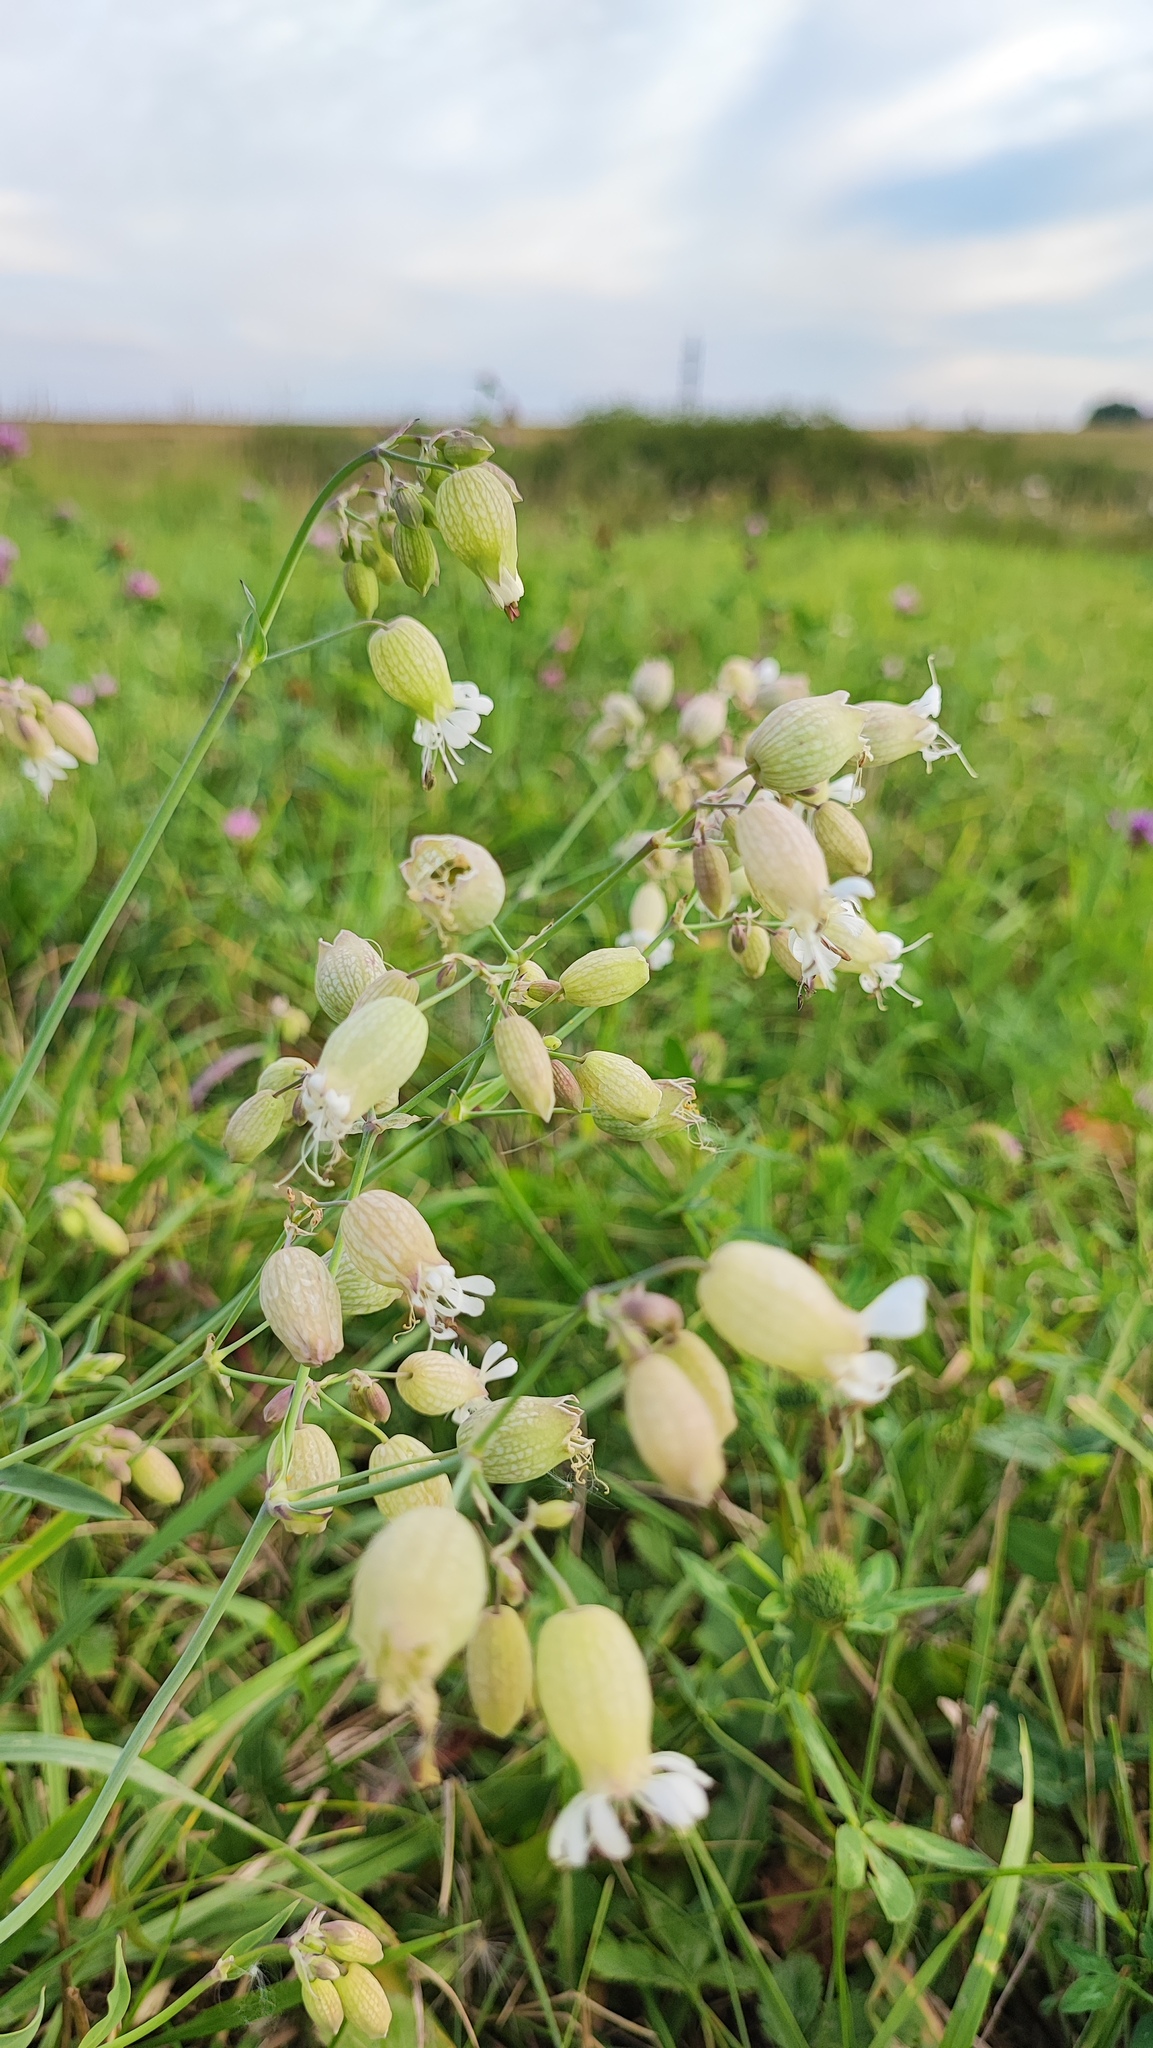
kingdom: Plantae
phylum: Tracheophyta
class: Magnoliopsida
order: Caryophyllales
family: Caryophyllaceae
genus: Silene
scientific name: Silene vulgaris
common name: Bladder campion
